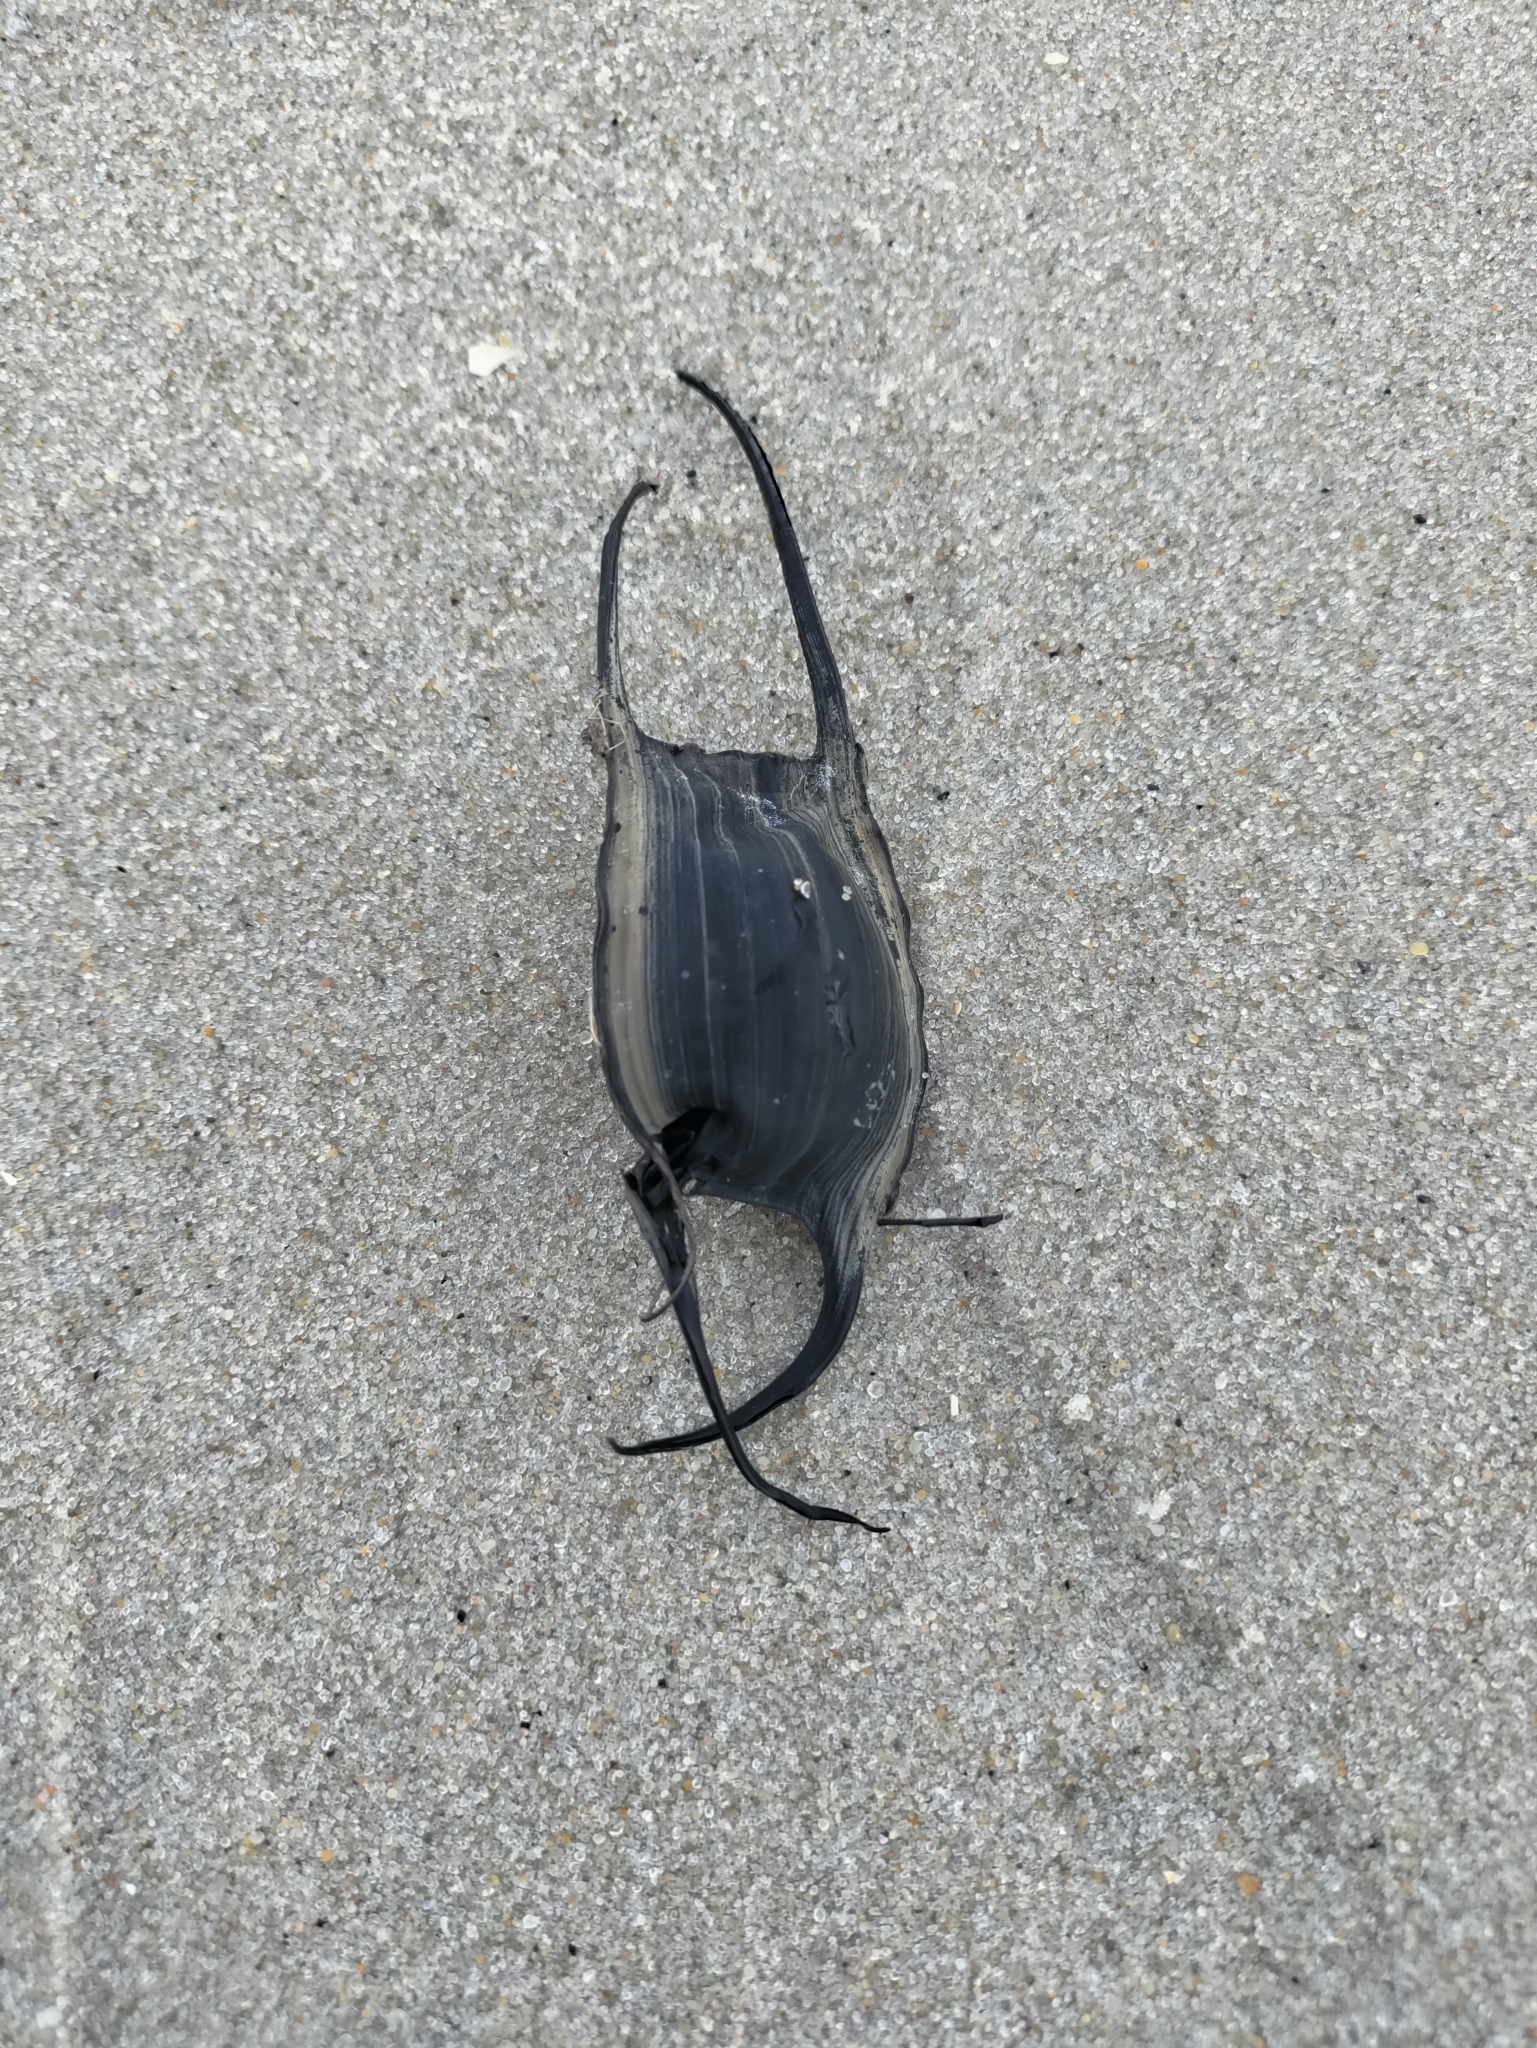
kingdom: Animalia
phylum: Chordata
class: Elasmobranchii
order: Rajiformes
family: Rajidae
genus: Leucoraja
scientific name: Leucoraja erinacea
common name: Little skate
